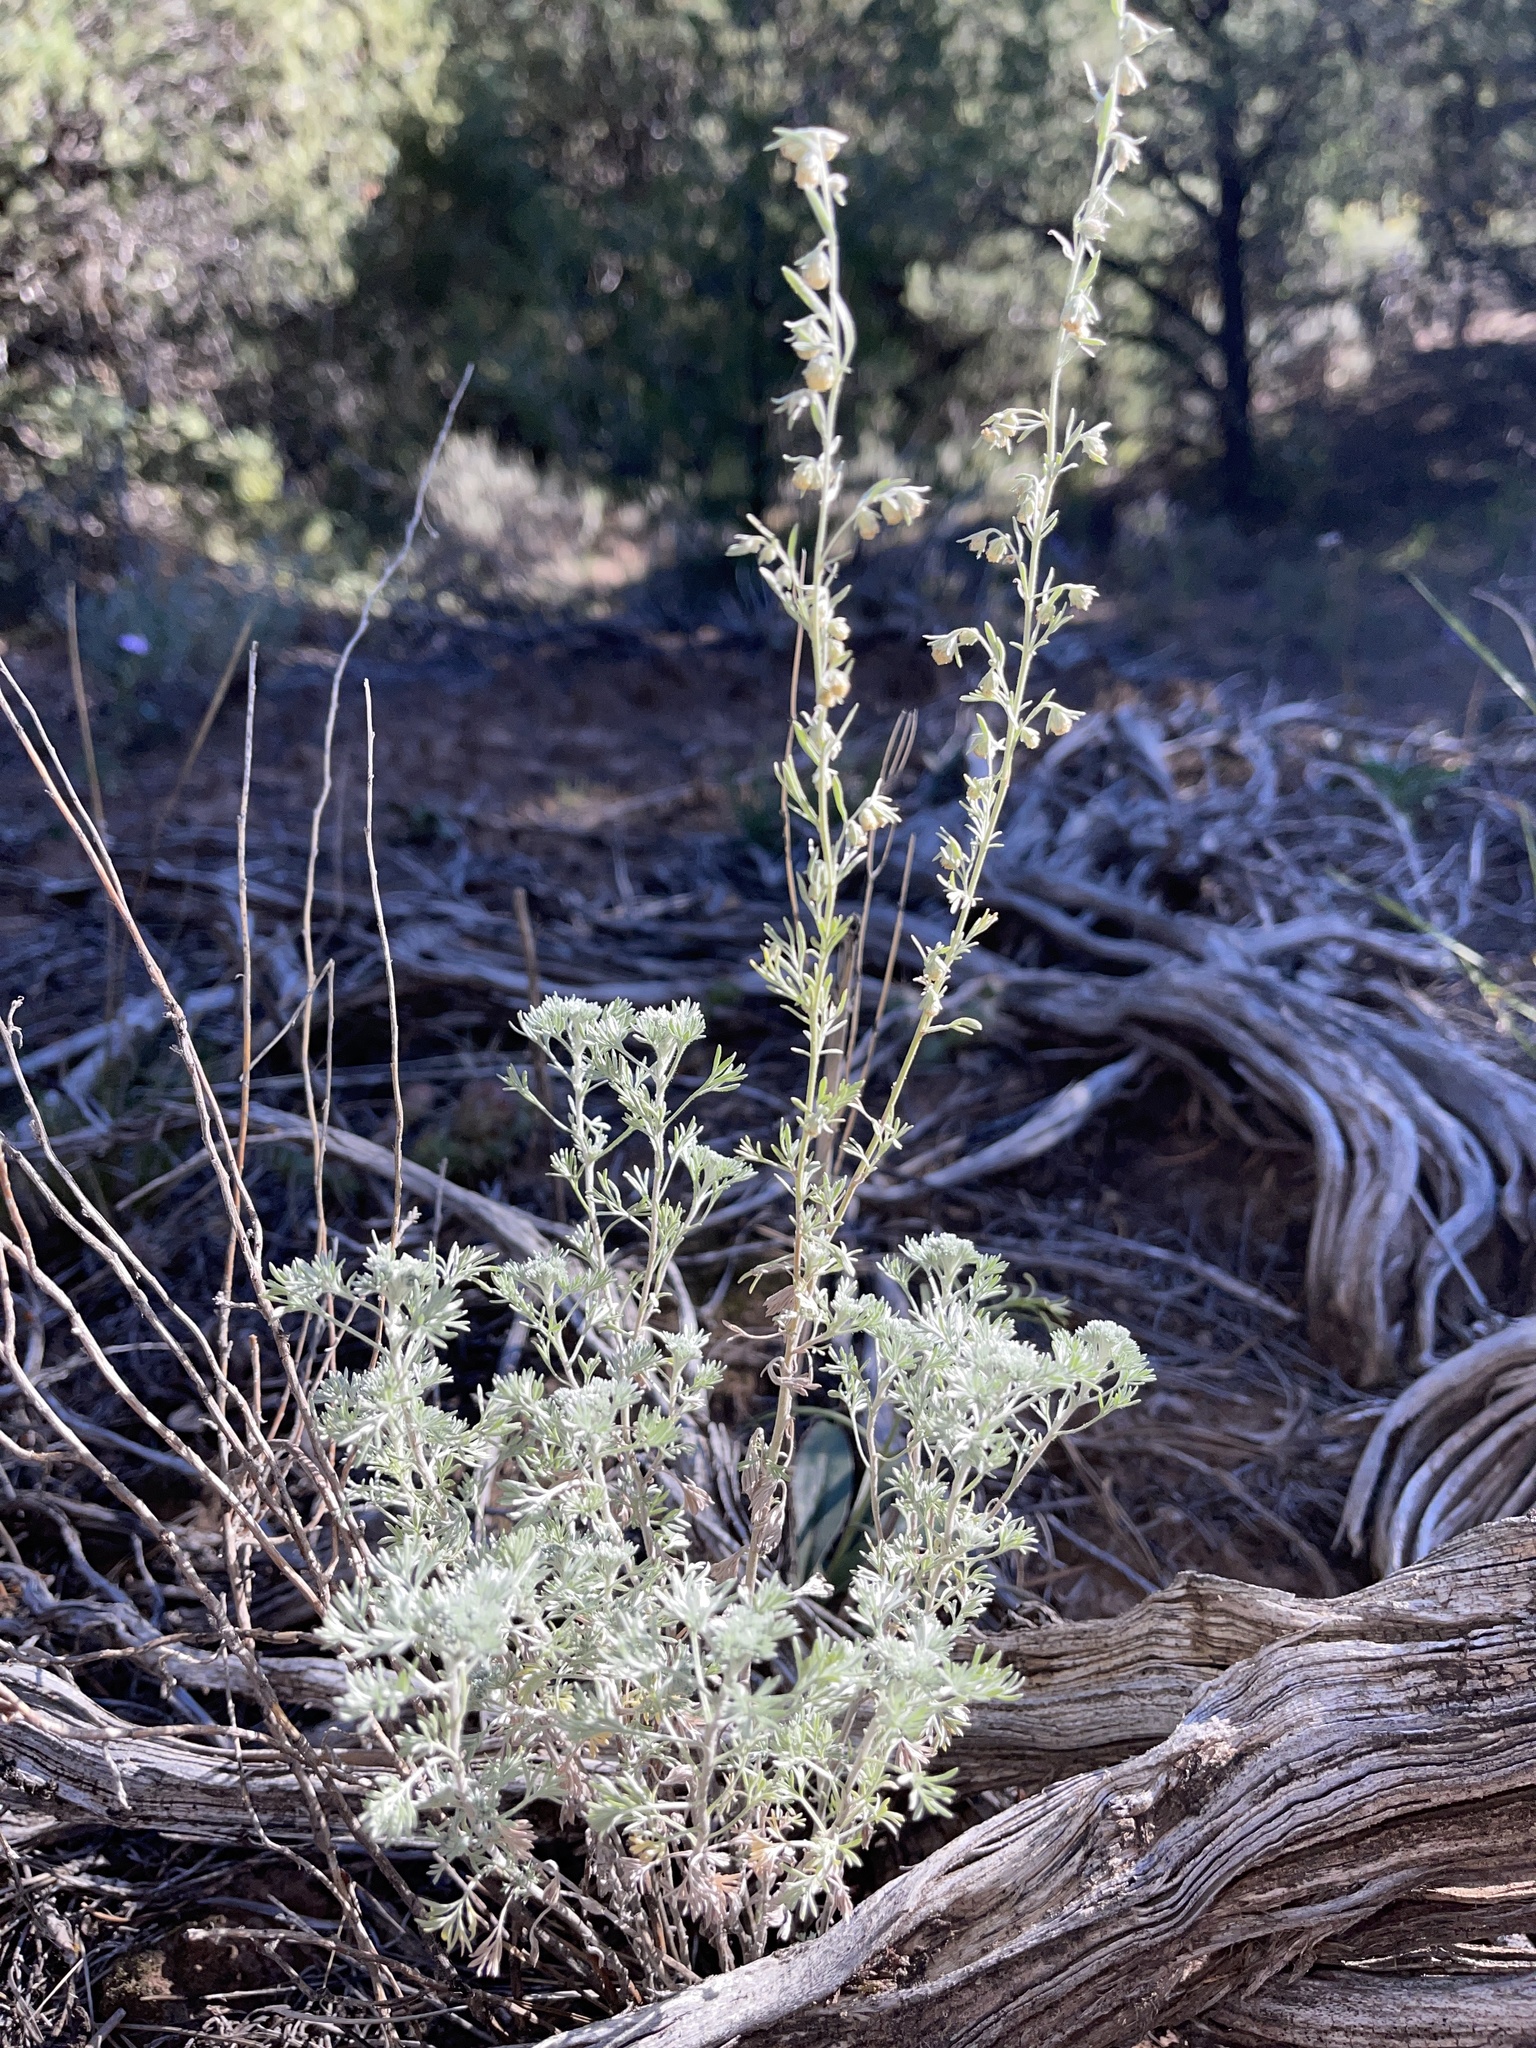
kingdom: Plantae
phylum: Tracheophyta
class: Magnoliopsida
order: Asterales
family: Asteraceae
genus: Artemisia
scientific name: Artemisia frigida
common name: Prairie sagewort
